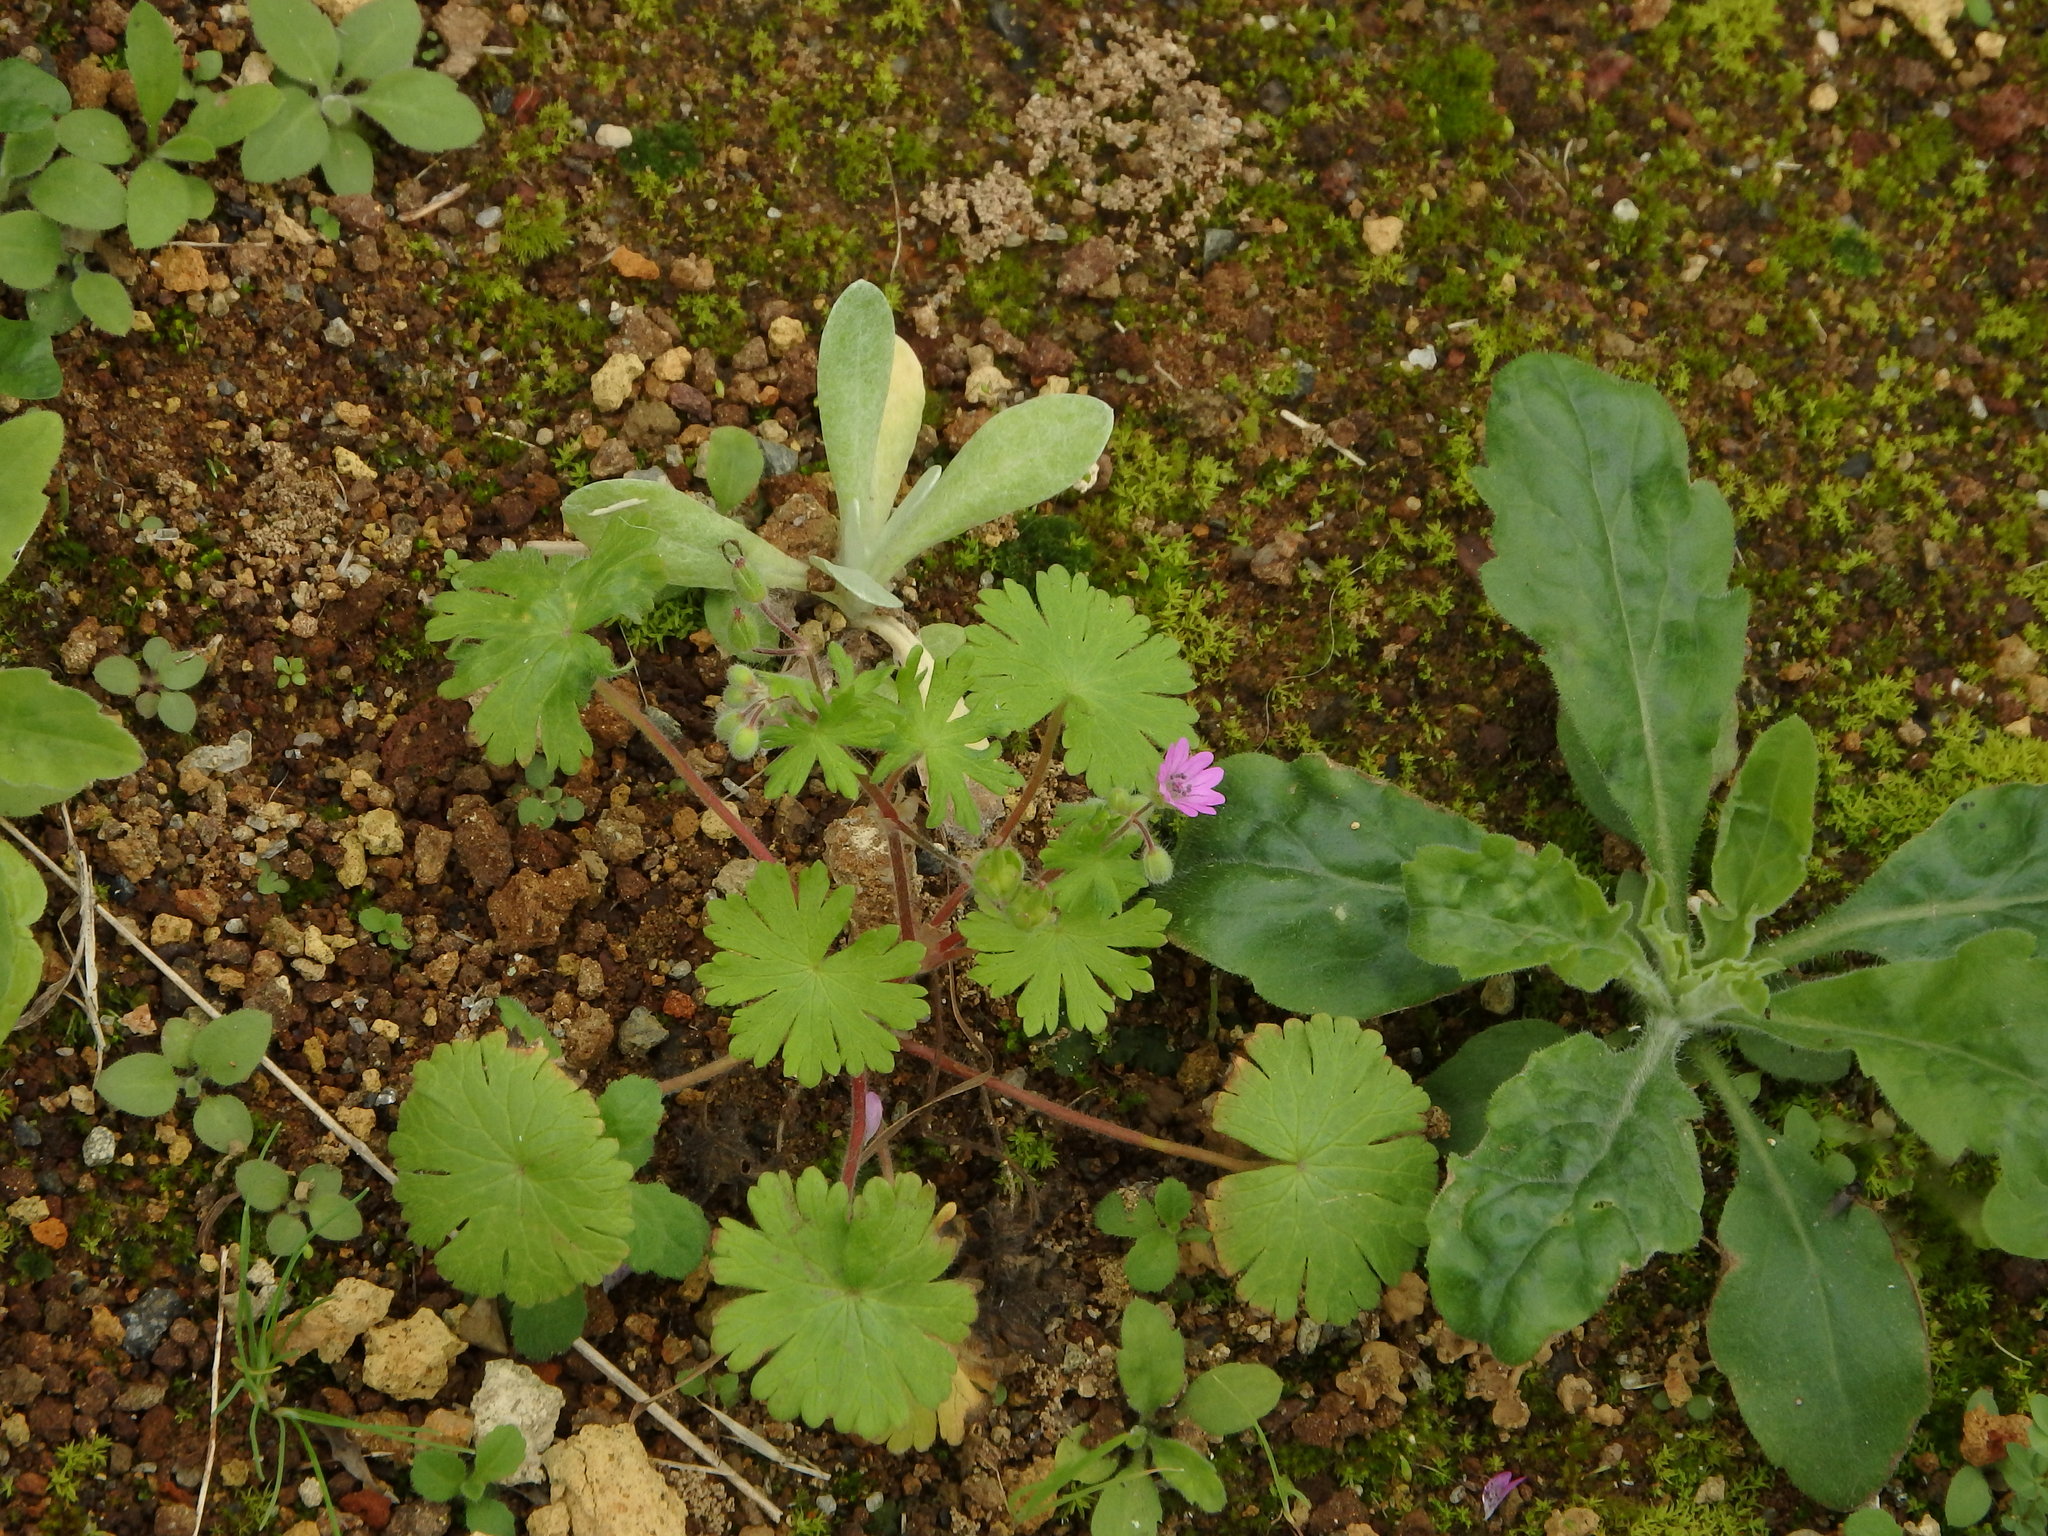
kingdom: Plantae
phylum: Tracheophyta
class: Magnoliopsida
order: Geraniales
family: Geraniaceae
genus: Geranium
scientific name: Geranium molle
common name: Dove's-foot crane's-bill
